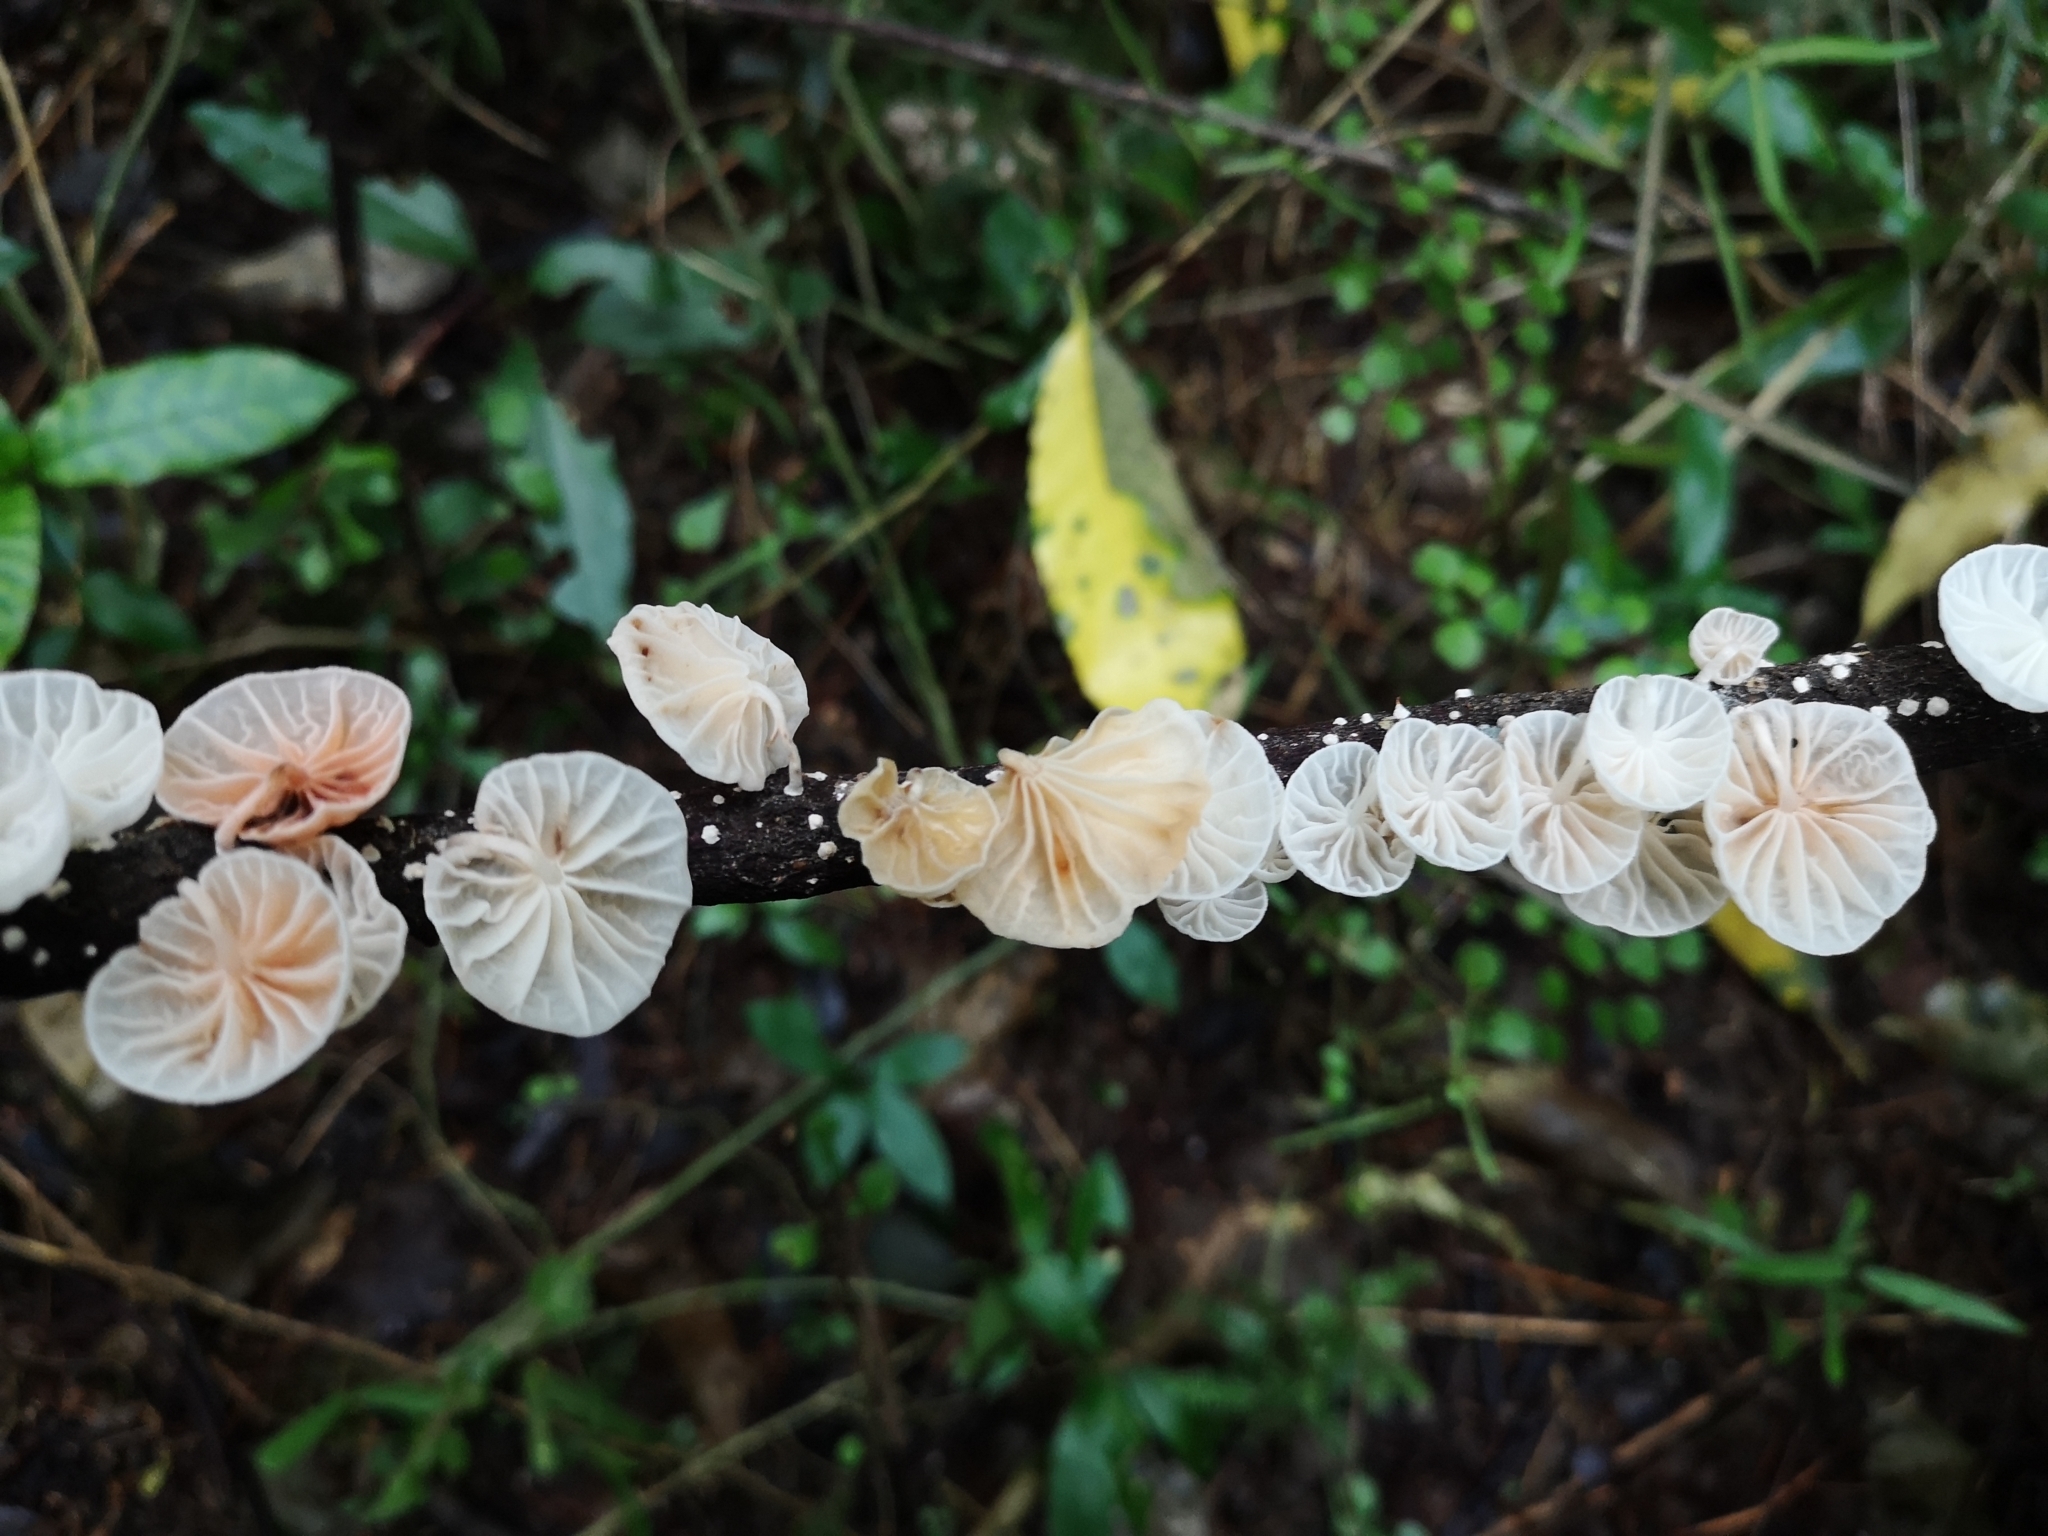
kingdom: Fungi
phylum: Basidiomycota
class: Agaricomycetes
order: Agaricales
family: Omphalotaceae
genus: Marasmiellus
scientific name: Marasmiellus candidus
